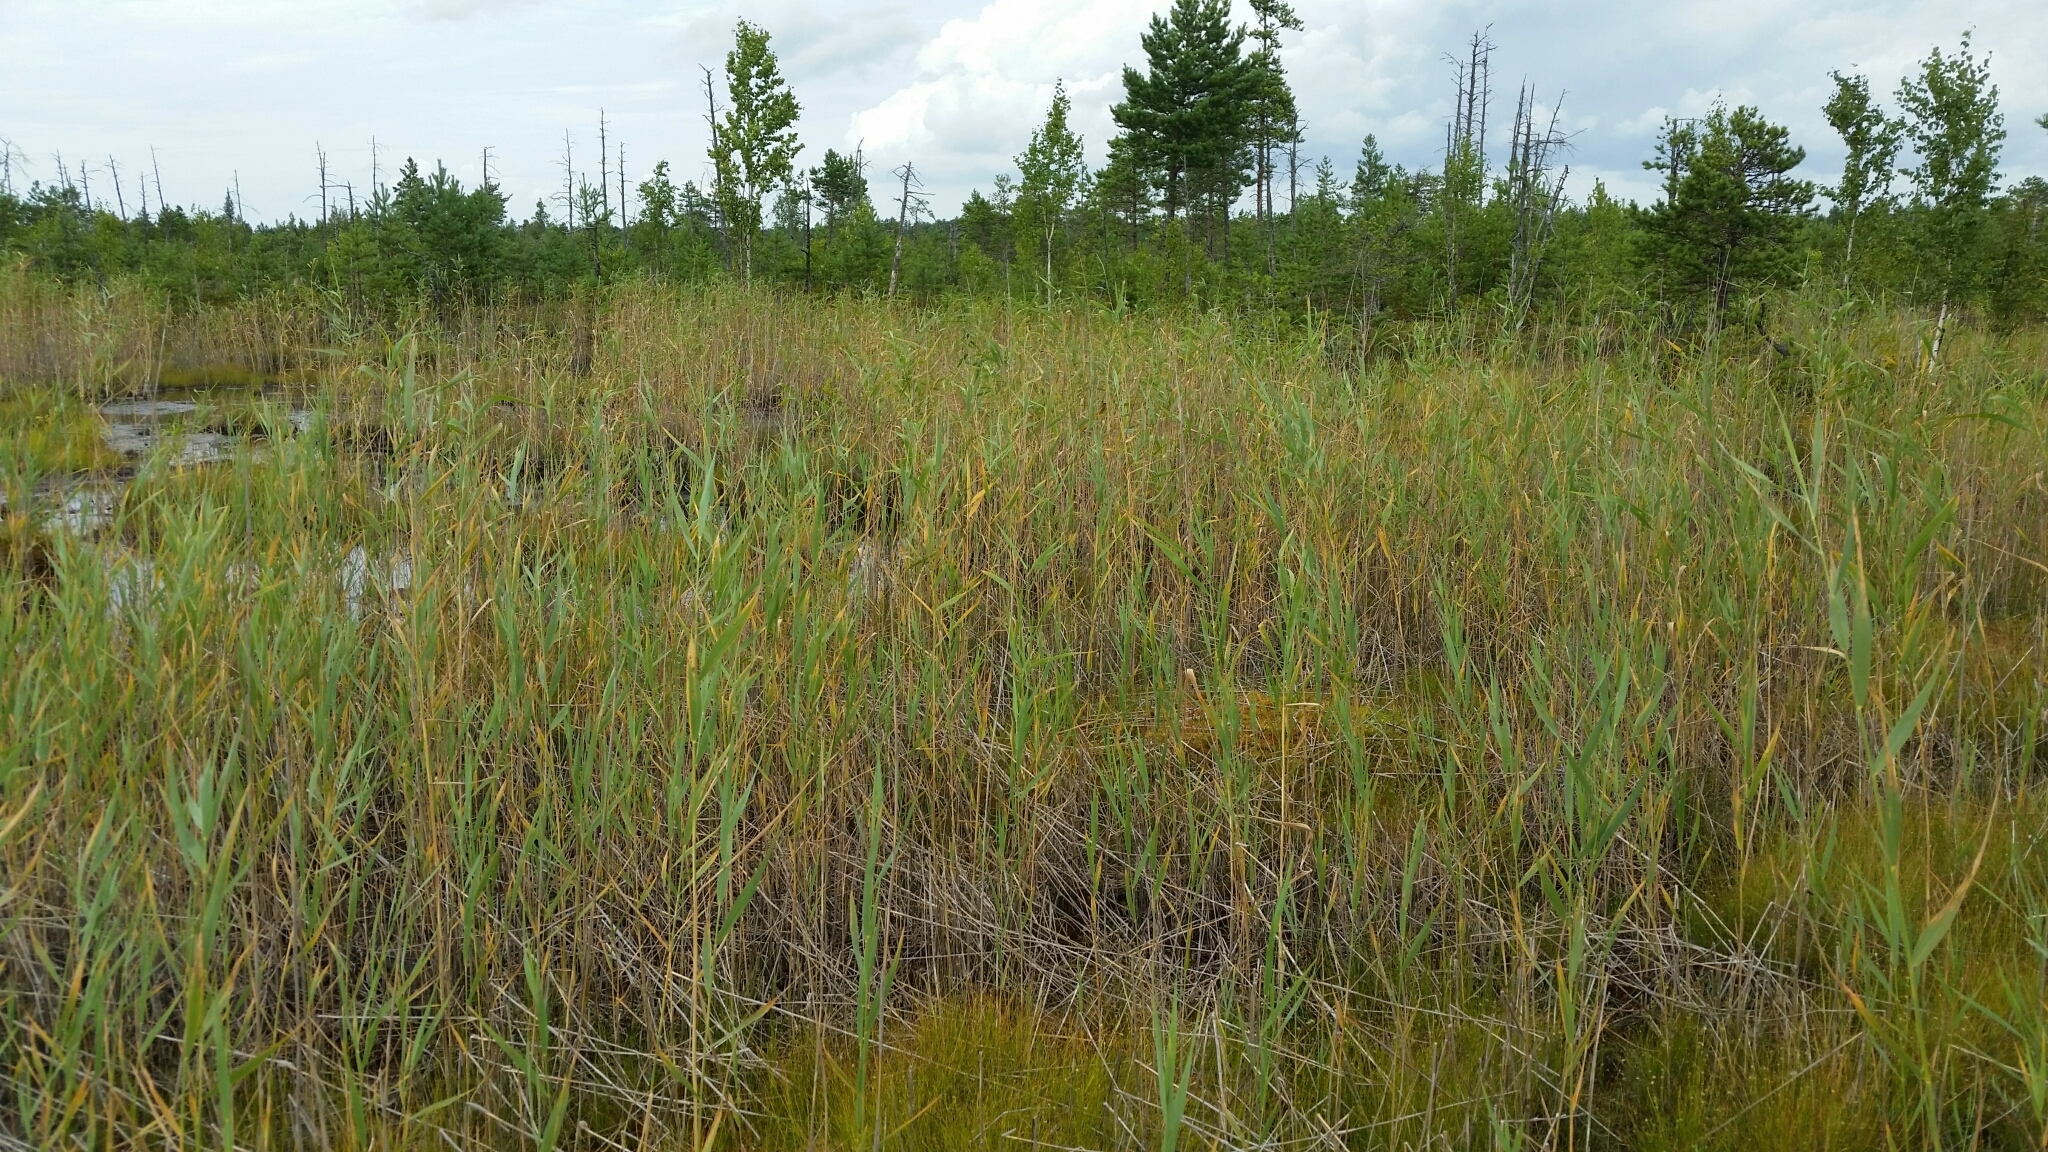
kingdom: Plantae
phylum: Tracheophyta
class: Liliopsida
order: Poales
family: Poaceae
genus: Phragmites
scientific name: Phragmites australis
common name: Common reed
